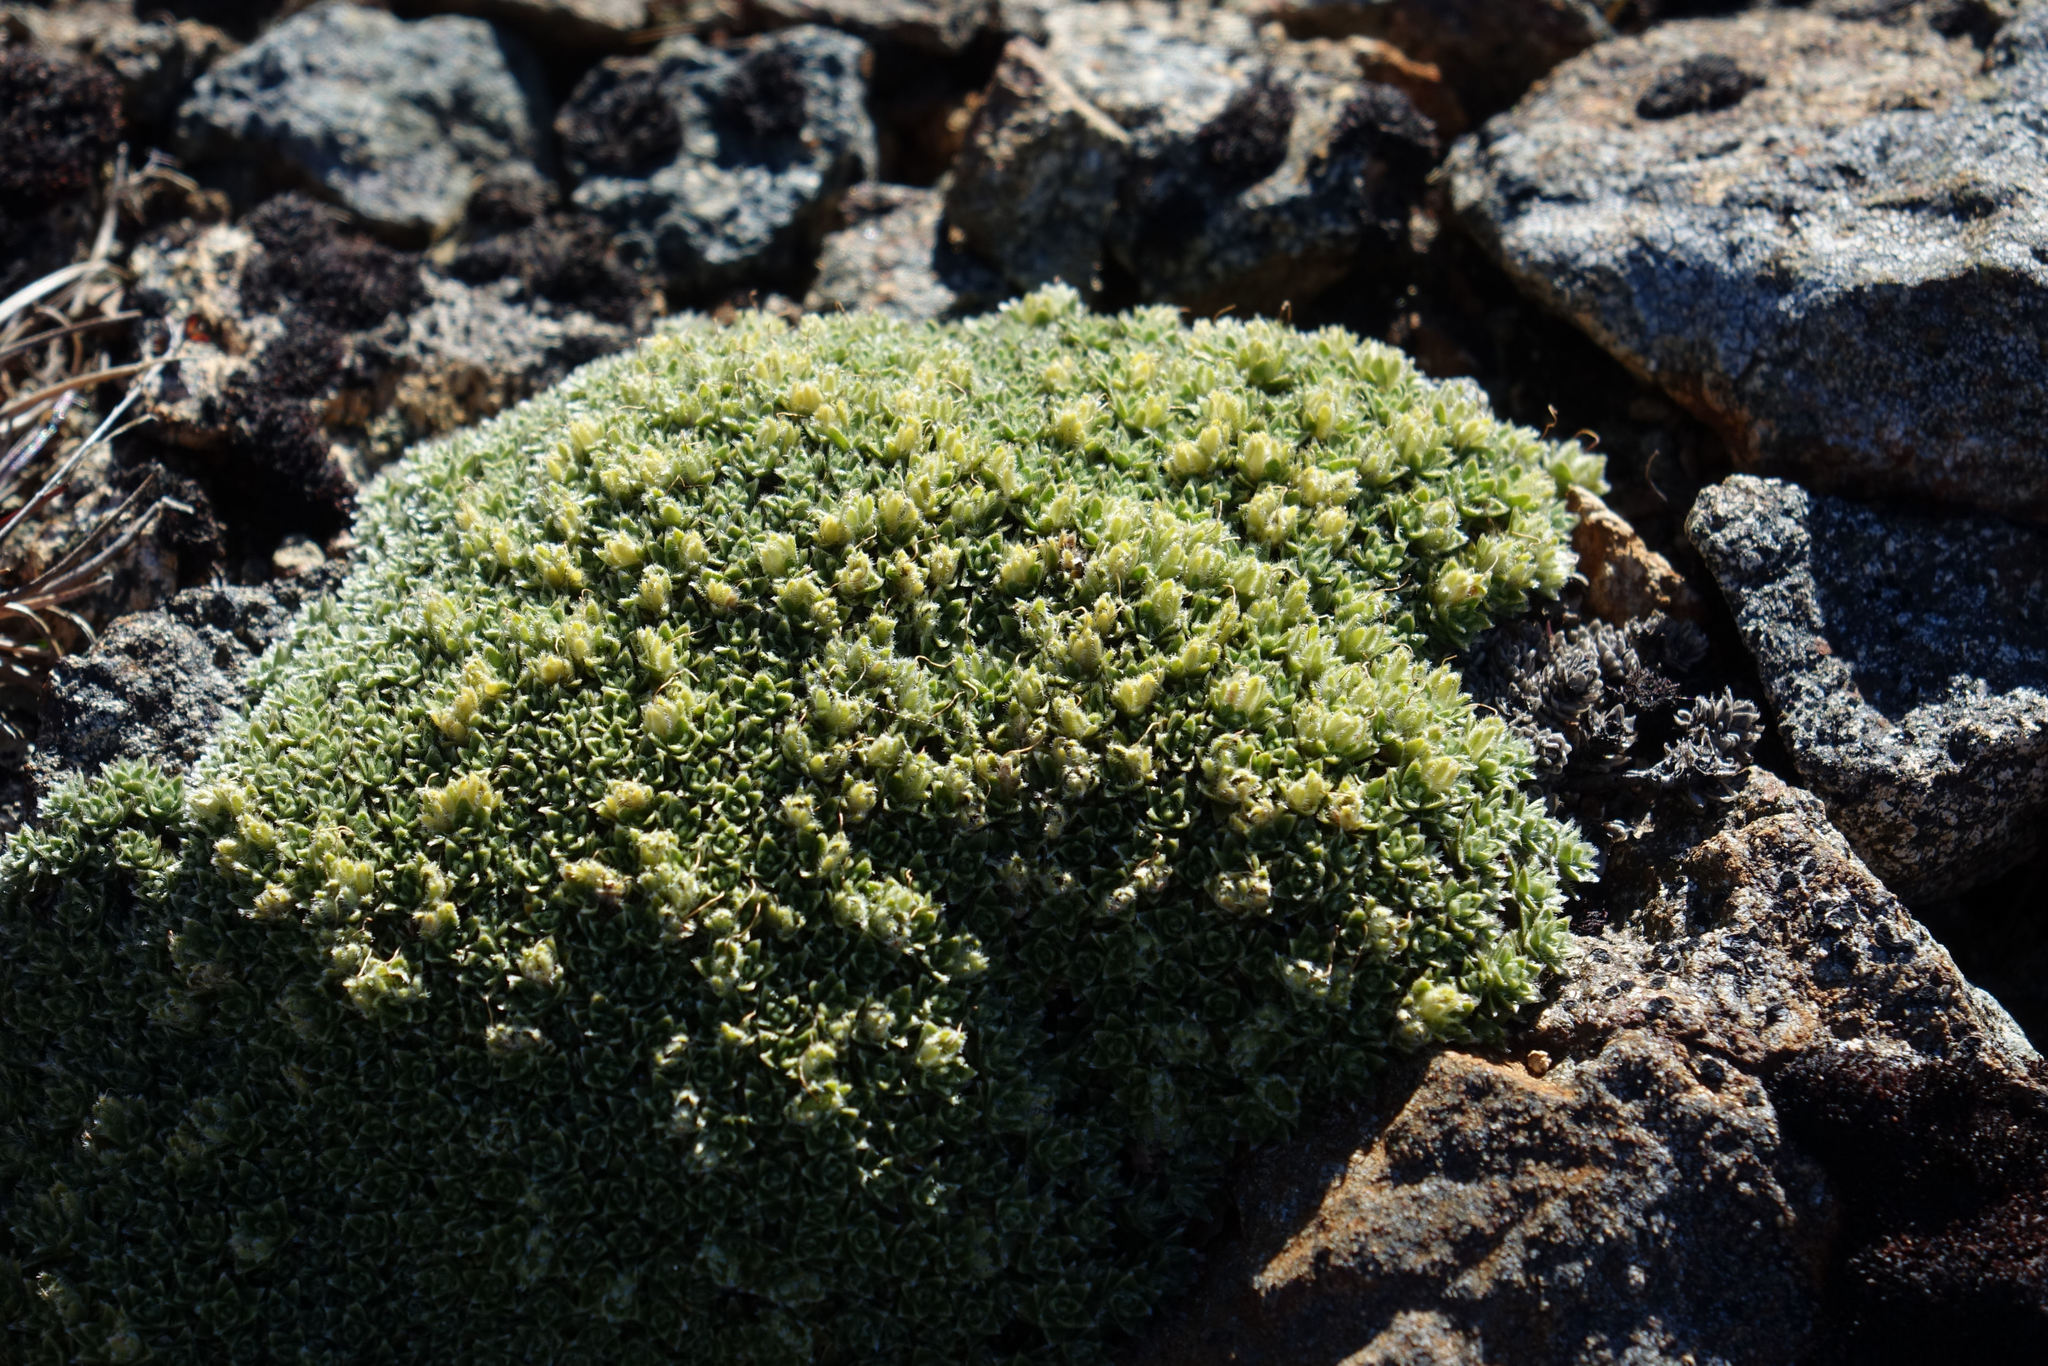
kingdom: Plantae
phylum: Tracheophyta
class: Magnoliopsida
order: Lamiales
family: Plantaginaceae
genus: Veronica
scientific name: Veronica ciliolata
